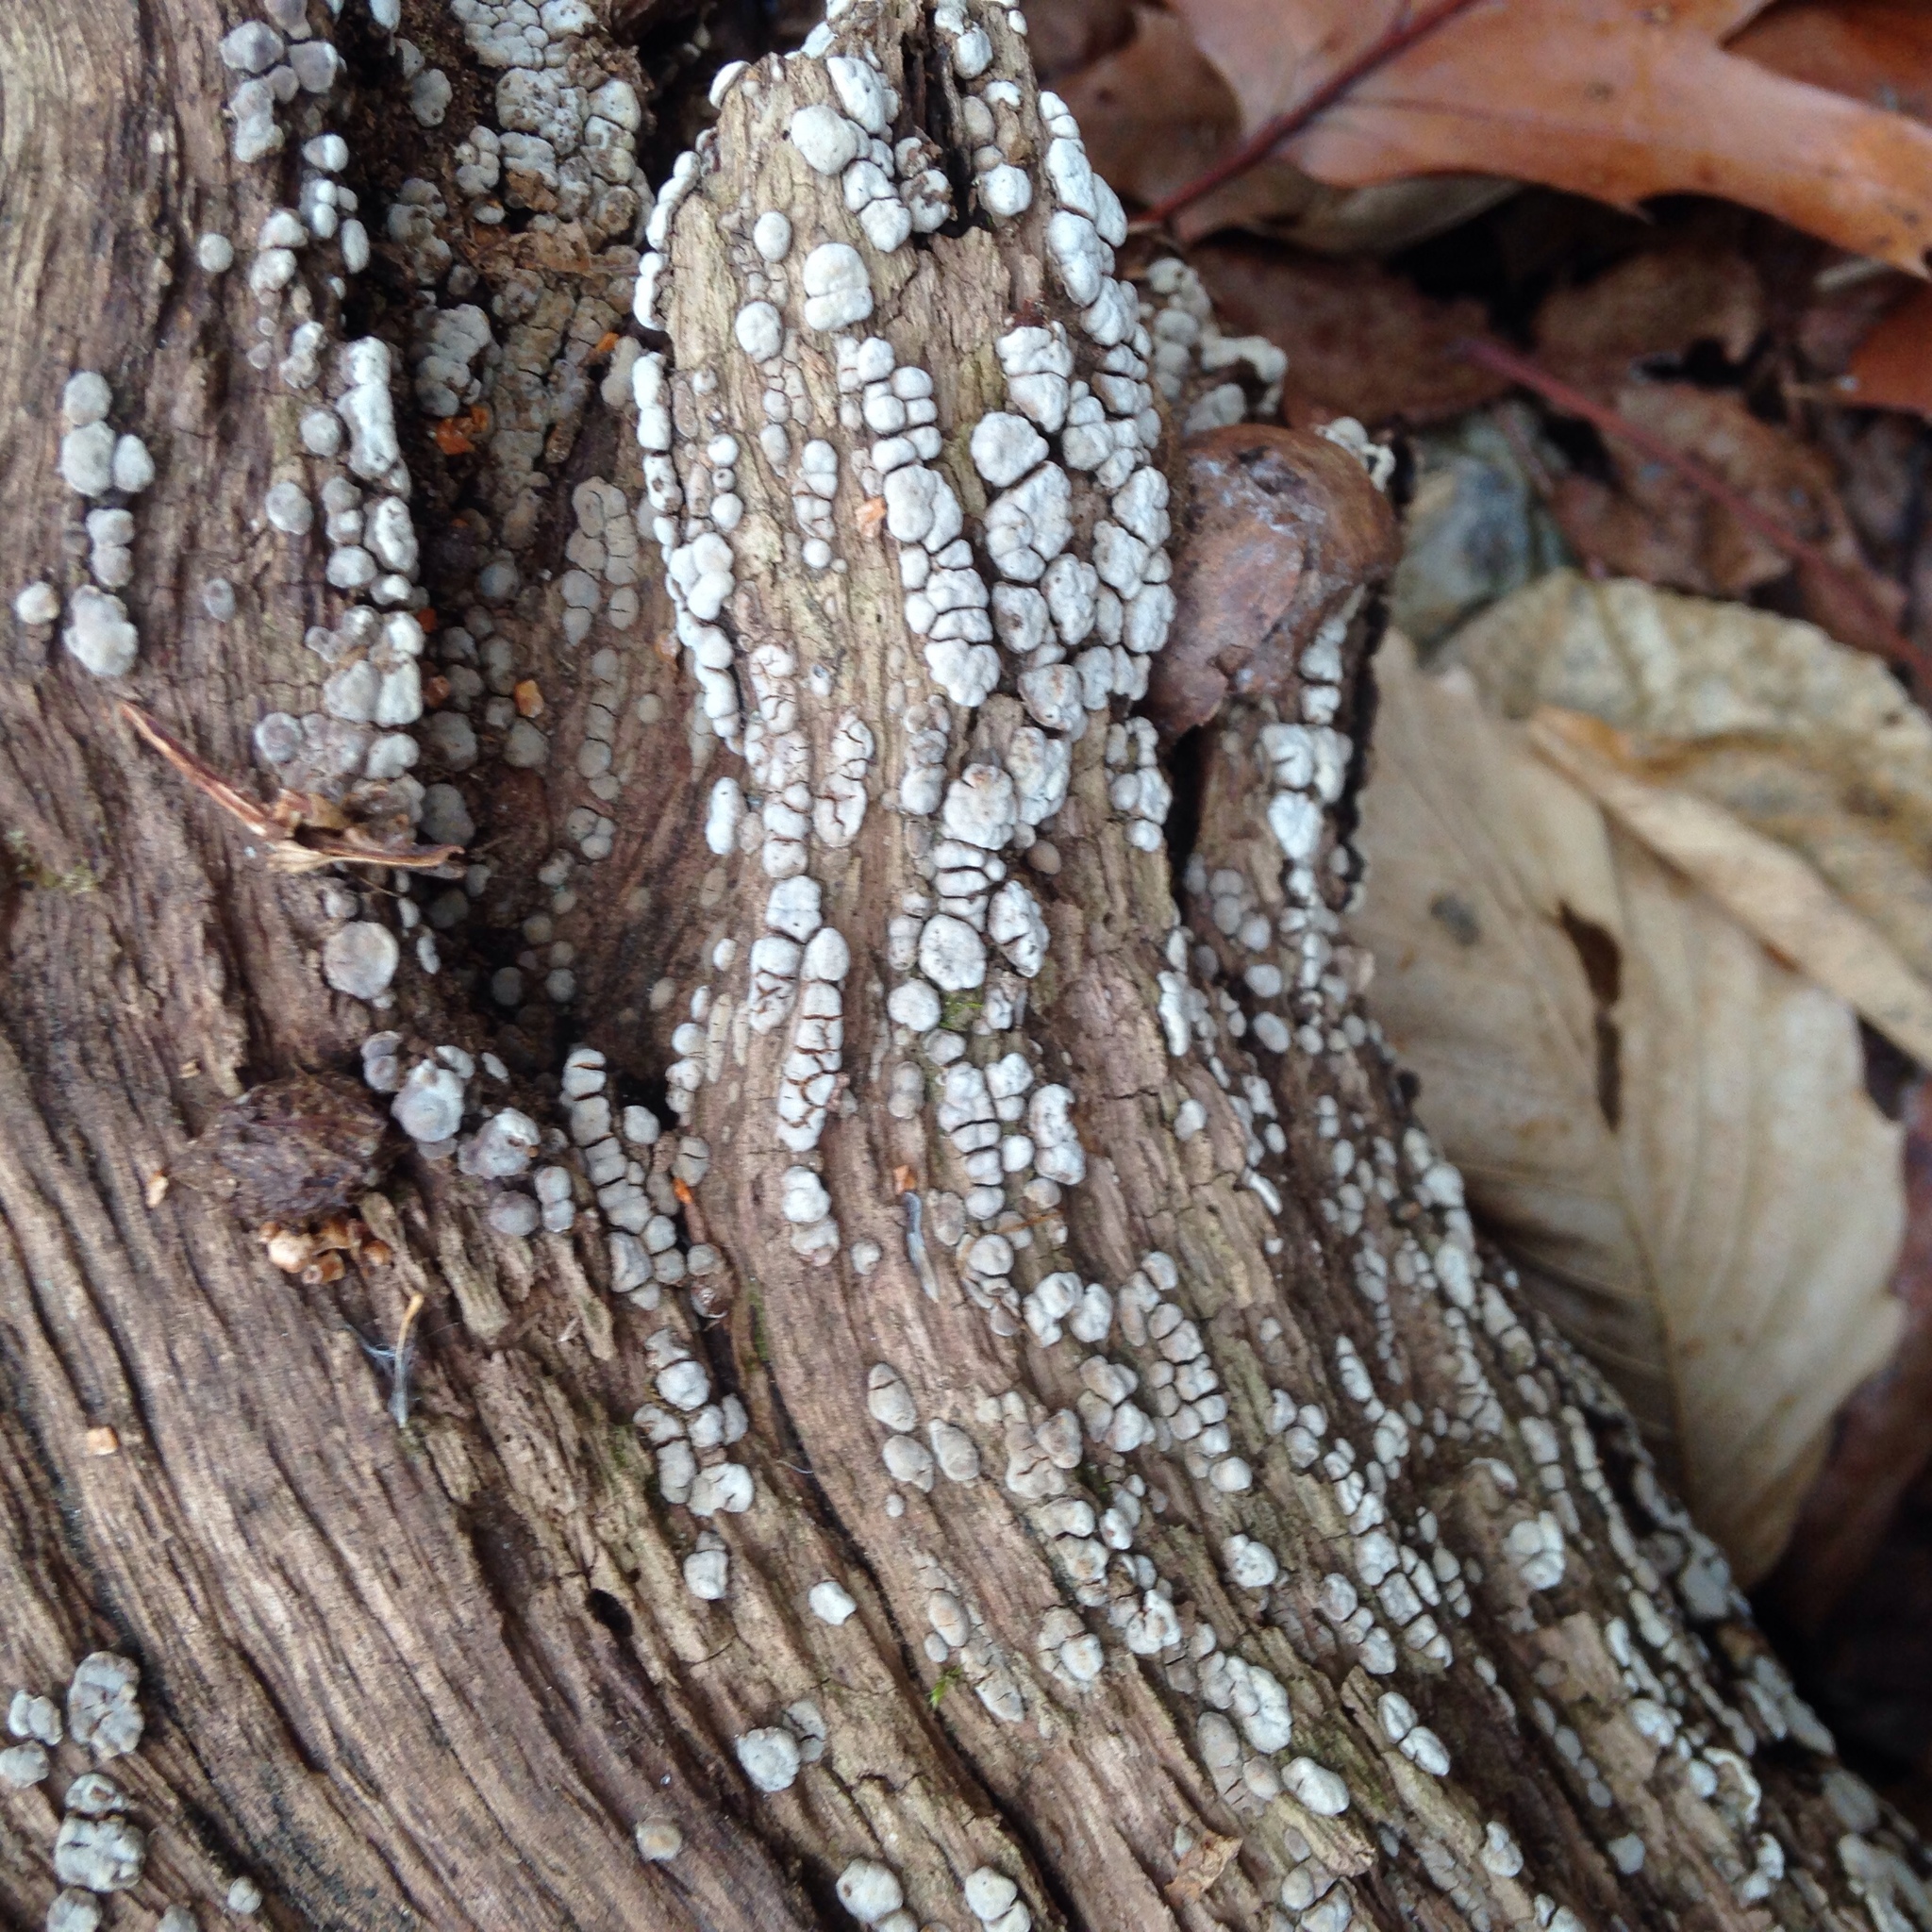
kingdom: Fungi
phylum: Basidiomycota
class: Agaricomycetes
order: Russulales
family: Stereaceae
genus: Xylobolus
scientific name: Xylobolus frustulatus
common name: Ceramic parchment
